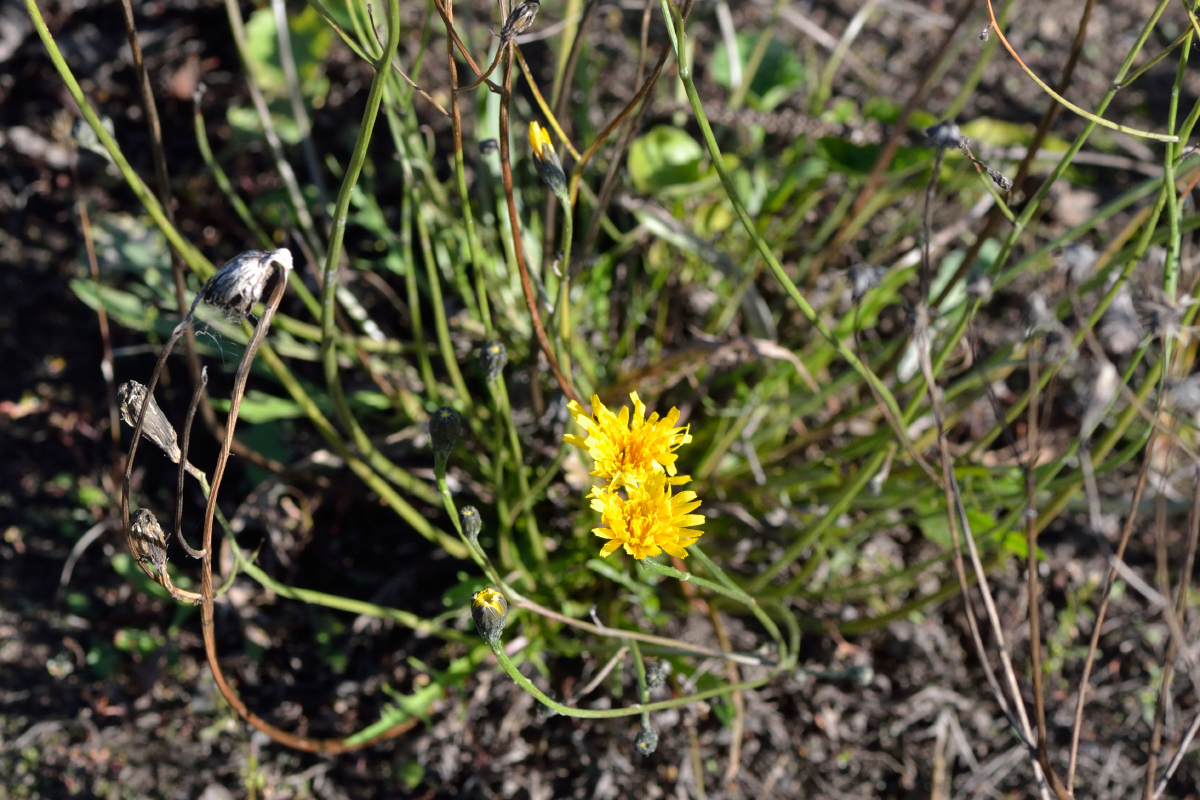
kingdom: Plantae
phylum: Tracheophyta
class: Magnoliopsida
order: Asterales
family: Asteraceae
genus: Scorzoneroides
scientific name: Scorzoneroides autumnalis
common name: Autumn hawkbit
